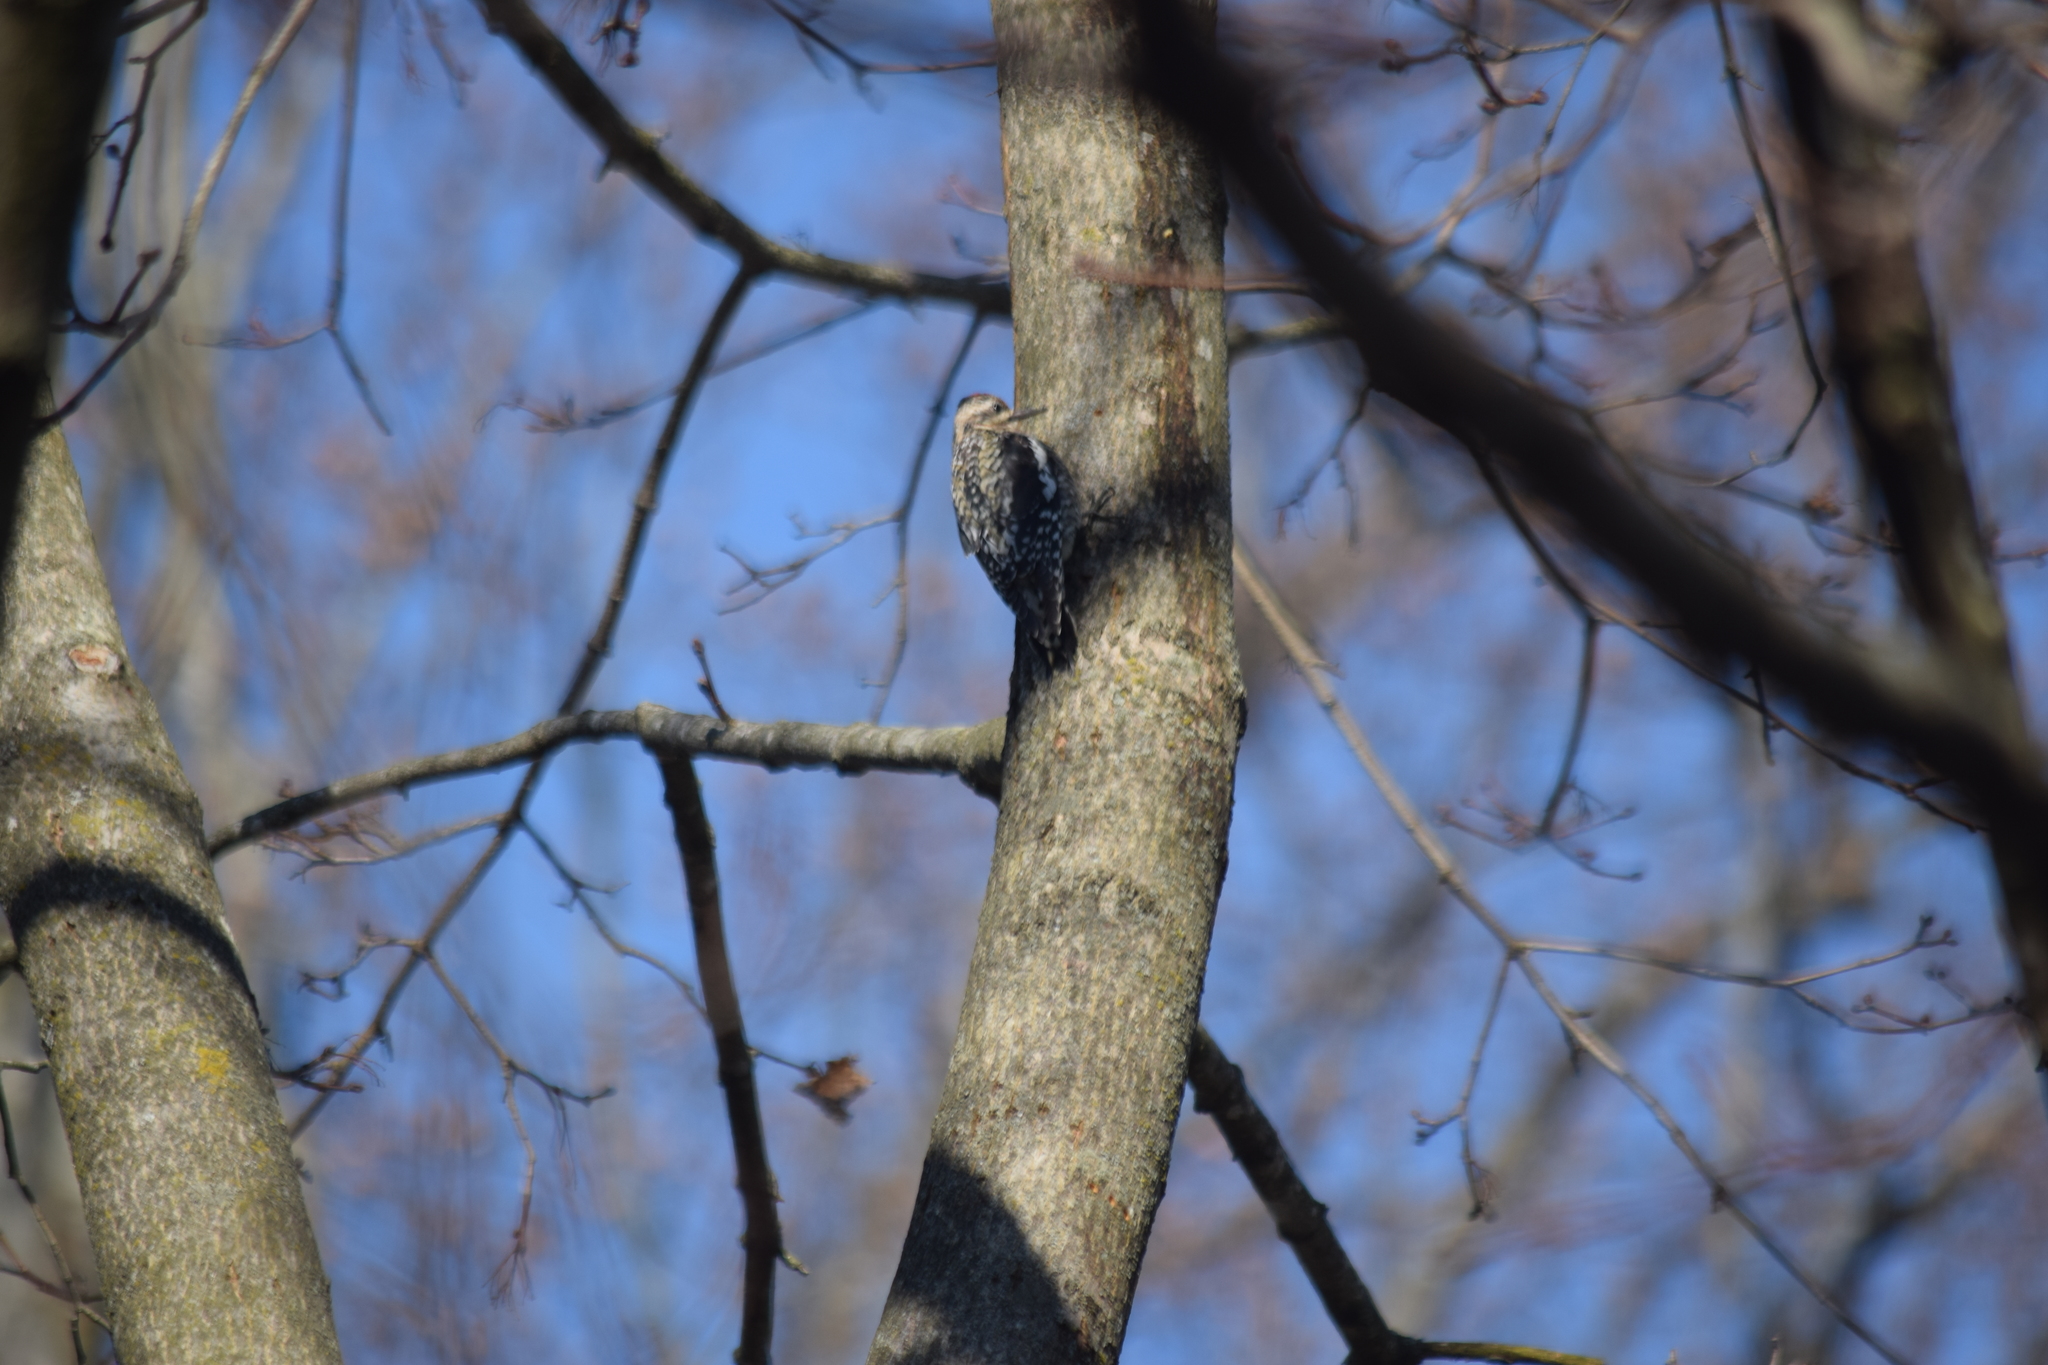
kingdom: Animalia
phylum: Chordata
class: Aves
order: Piciformes
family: Picidae
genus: Sphyrapicus
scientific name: Sphyrapicus varius
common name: Yellow-bellied sapsucker
